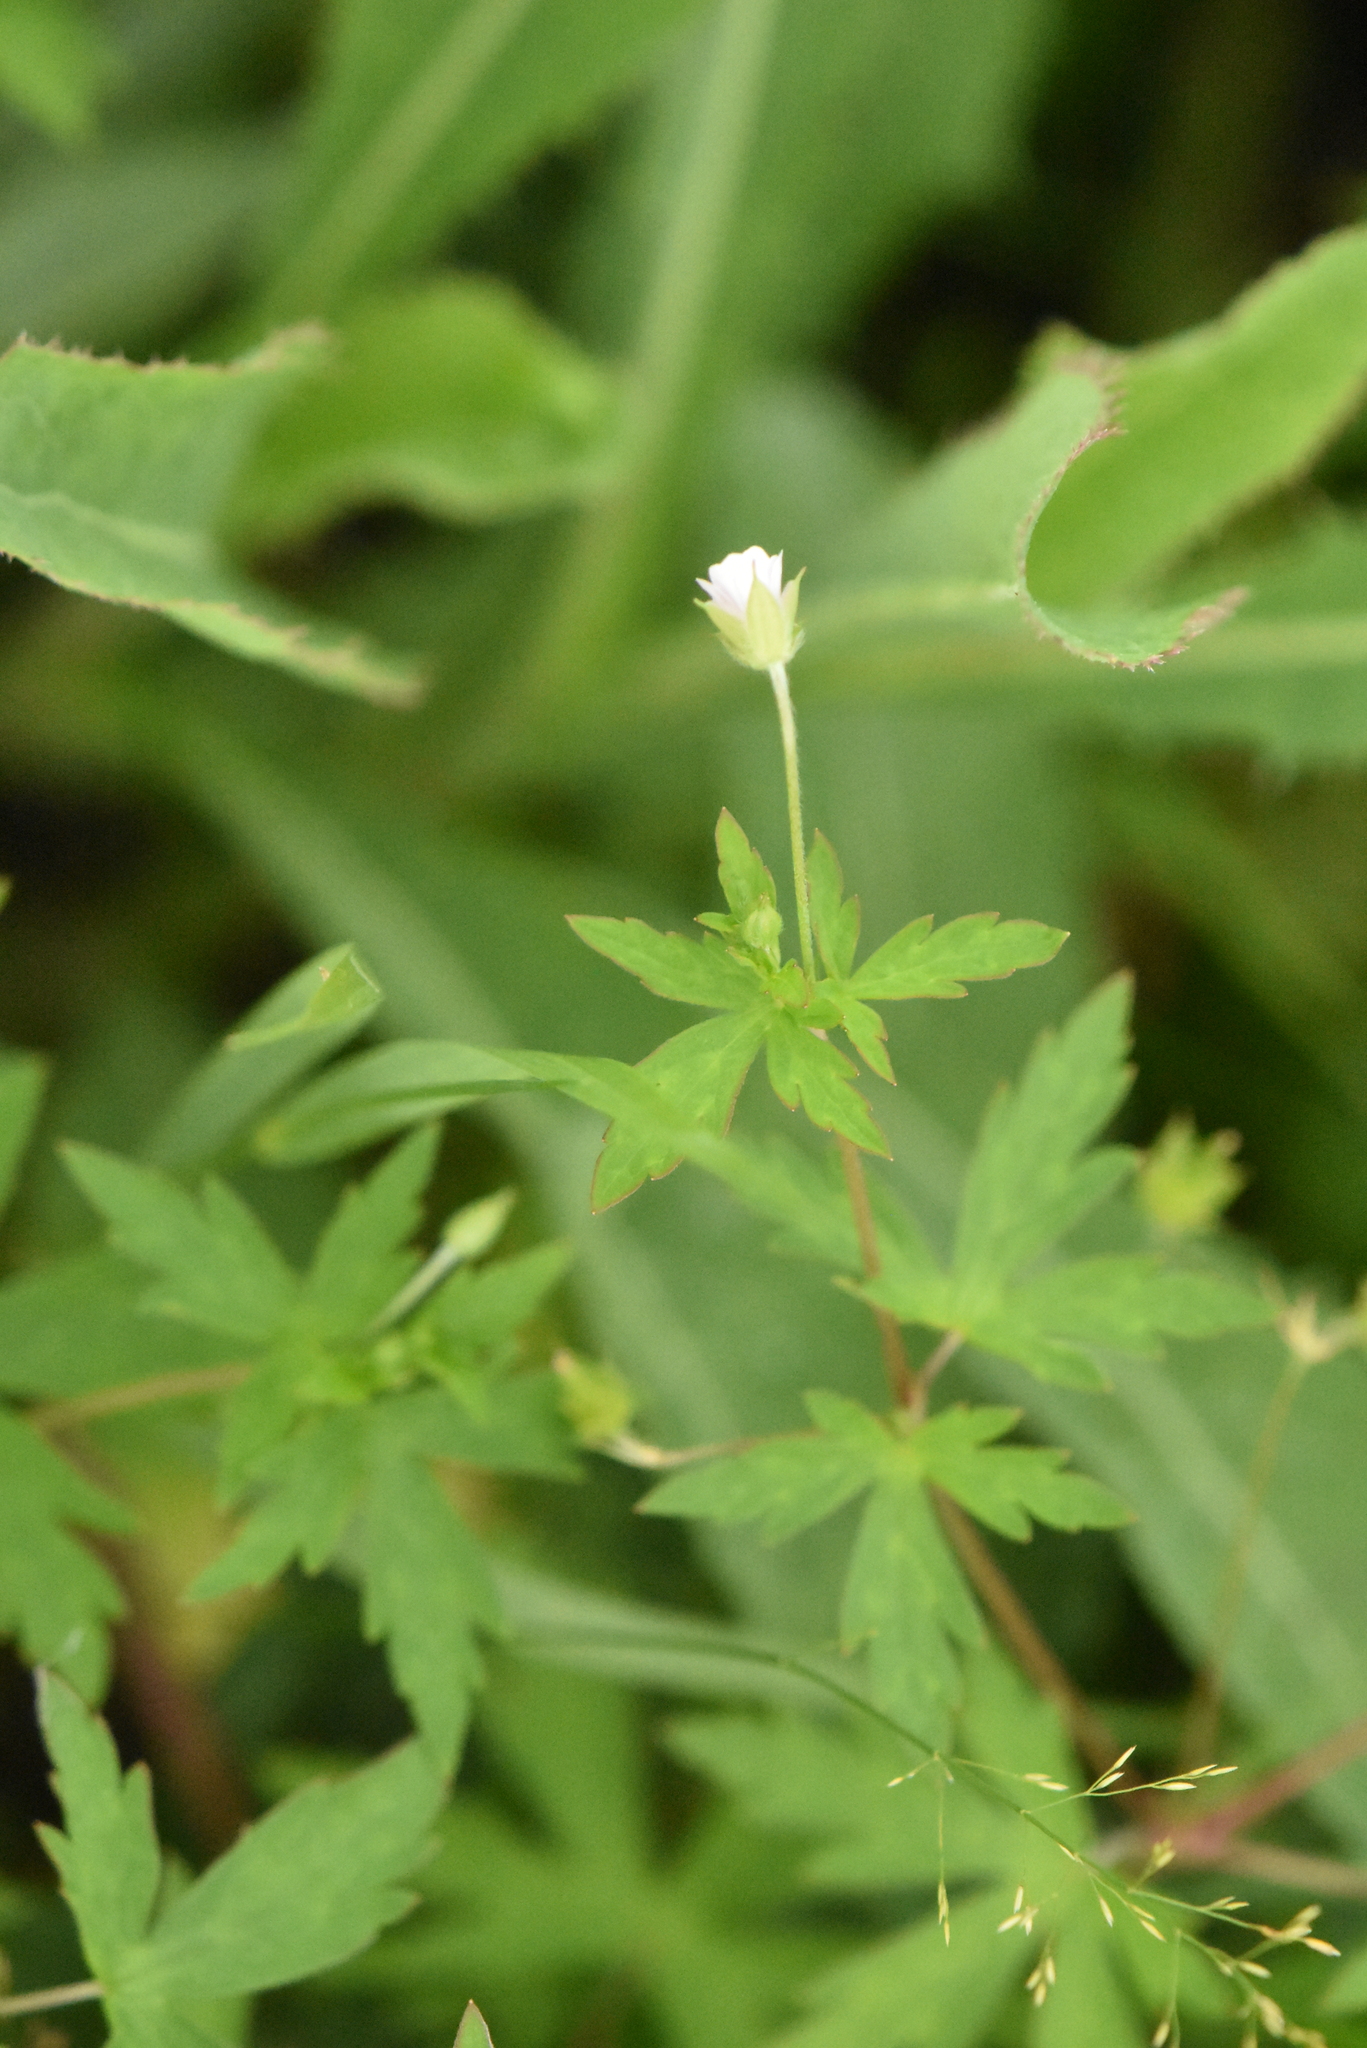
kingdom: Plantae
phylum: Tracheophyta
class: Magnoliopsida
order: Geraniales
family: Geraniaceae
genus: Geranium
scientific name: Geranium sibiricum
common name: Siberian crane's-bill
